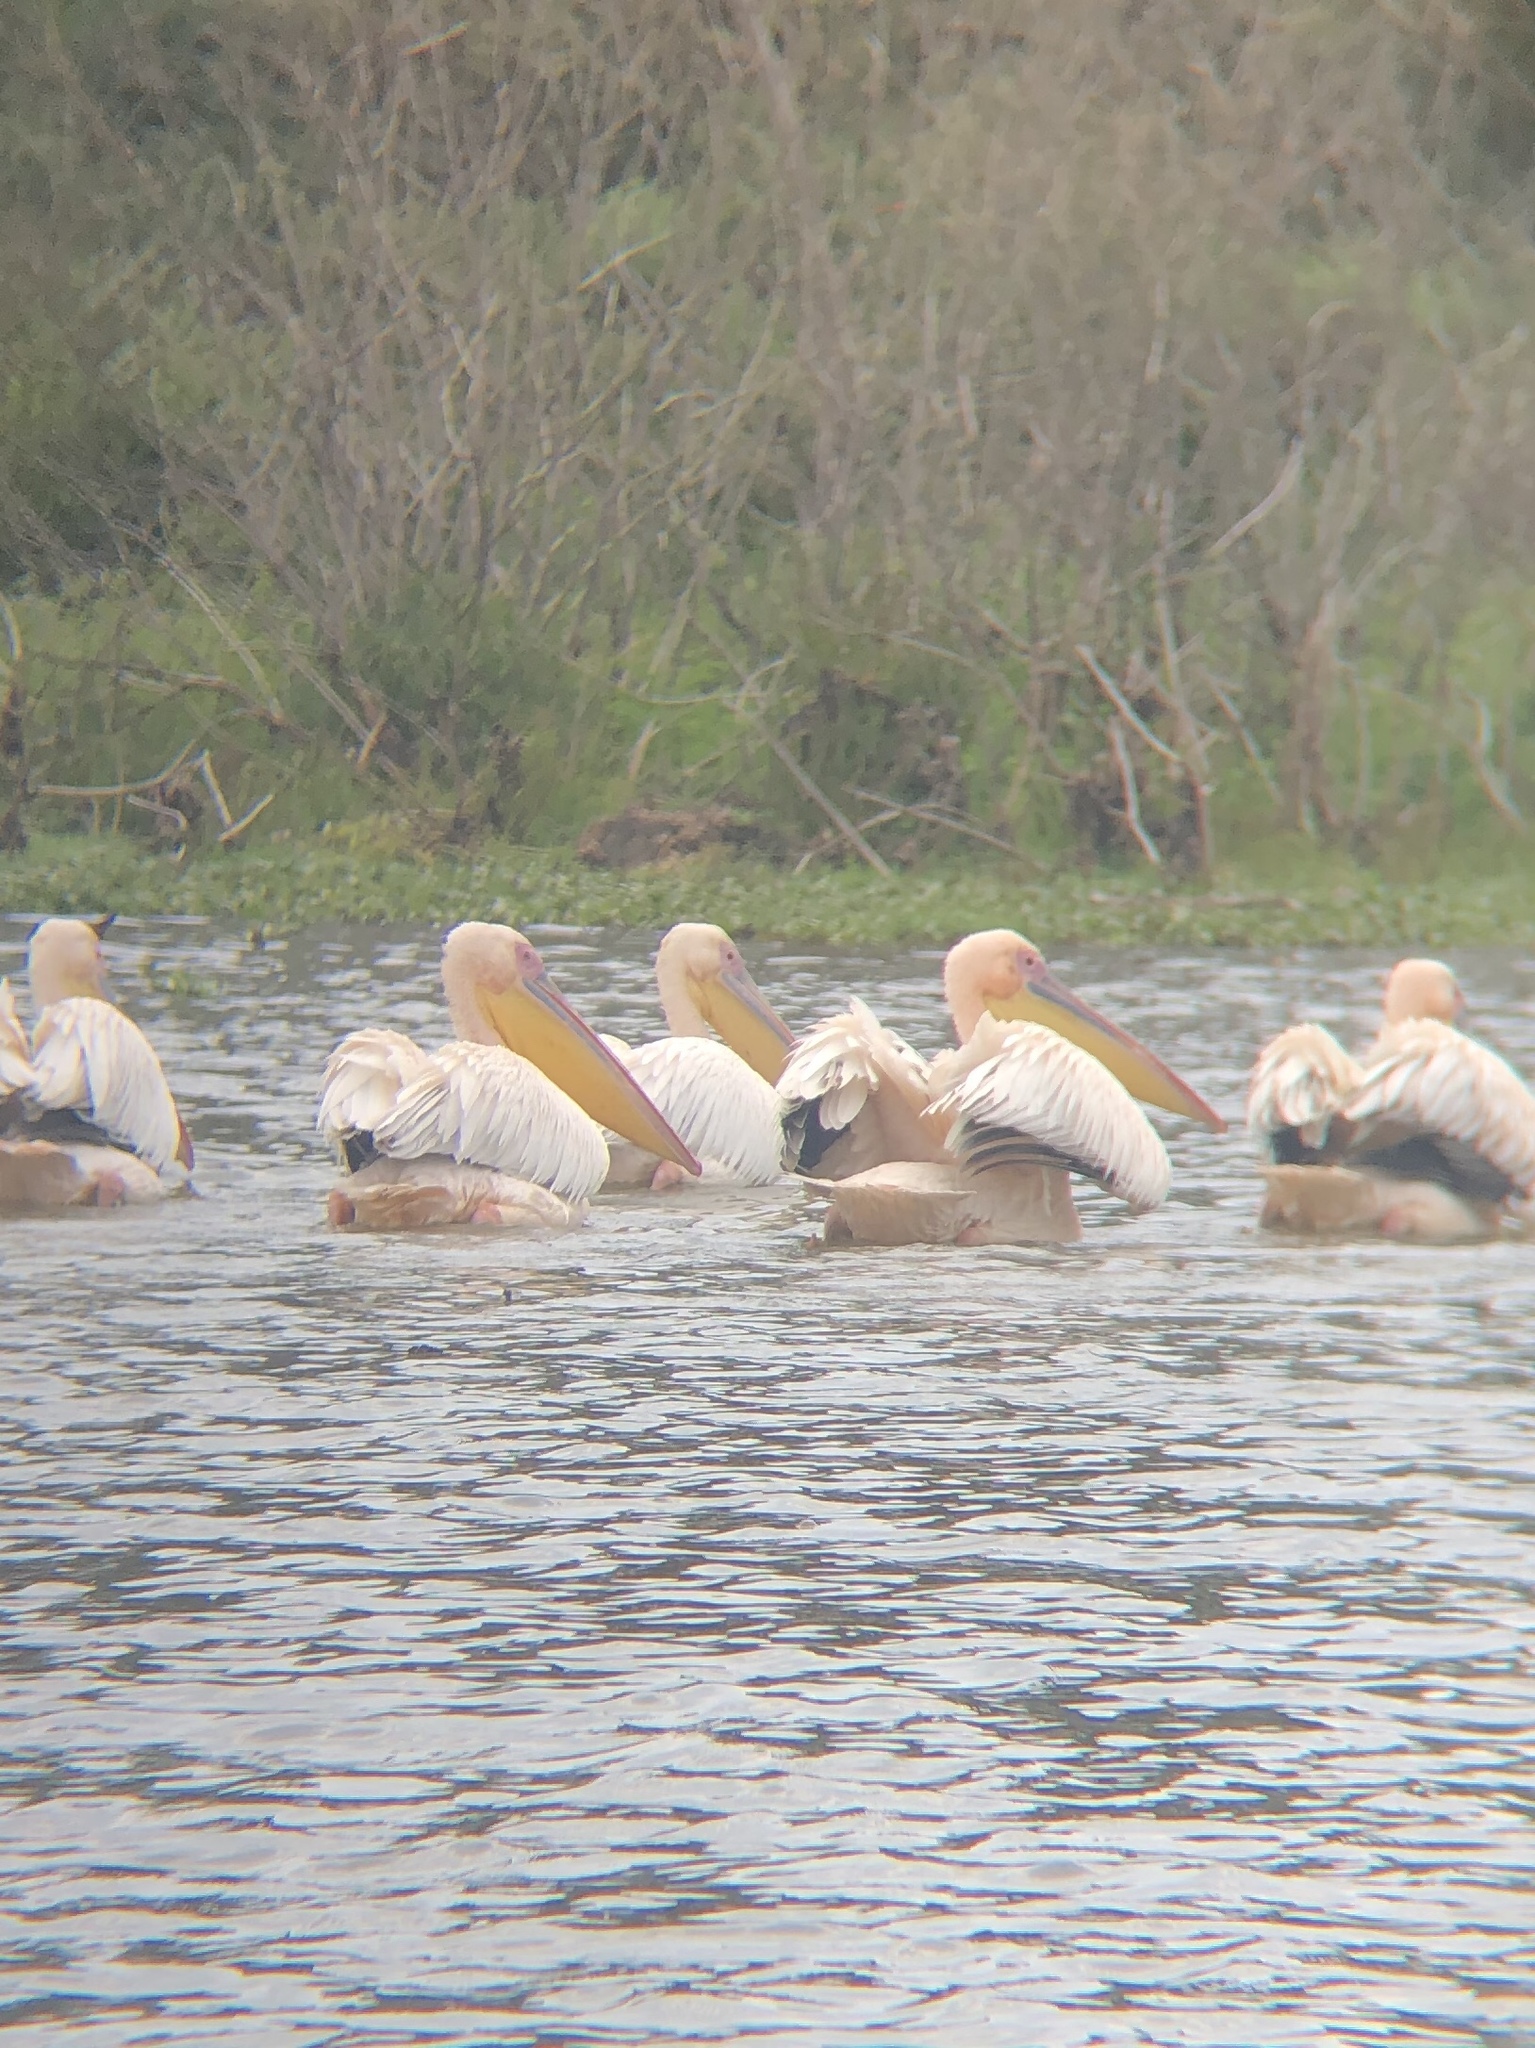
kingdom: Animalia
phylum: Chordata
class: Aves
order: Pelecaniformes
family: Pelecanidae
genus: Pelecanus
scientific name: Pelecanus onocrotalus
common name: Great white pelican
